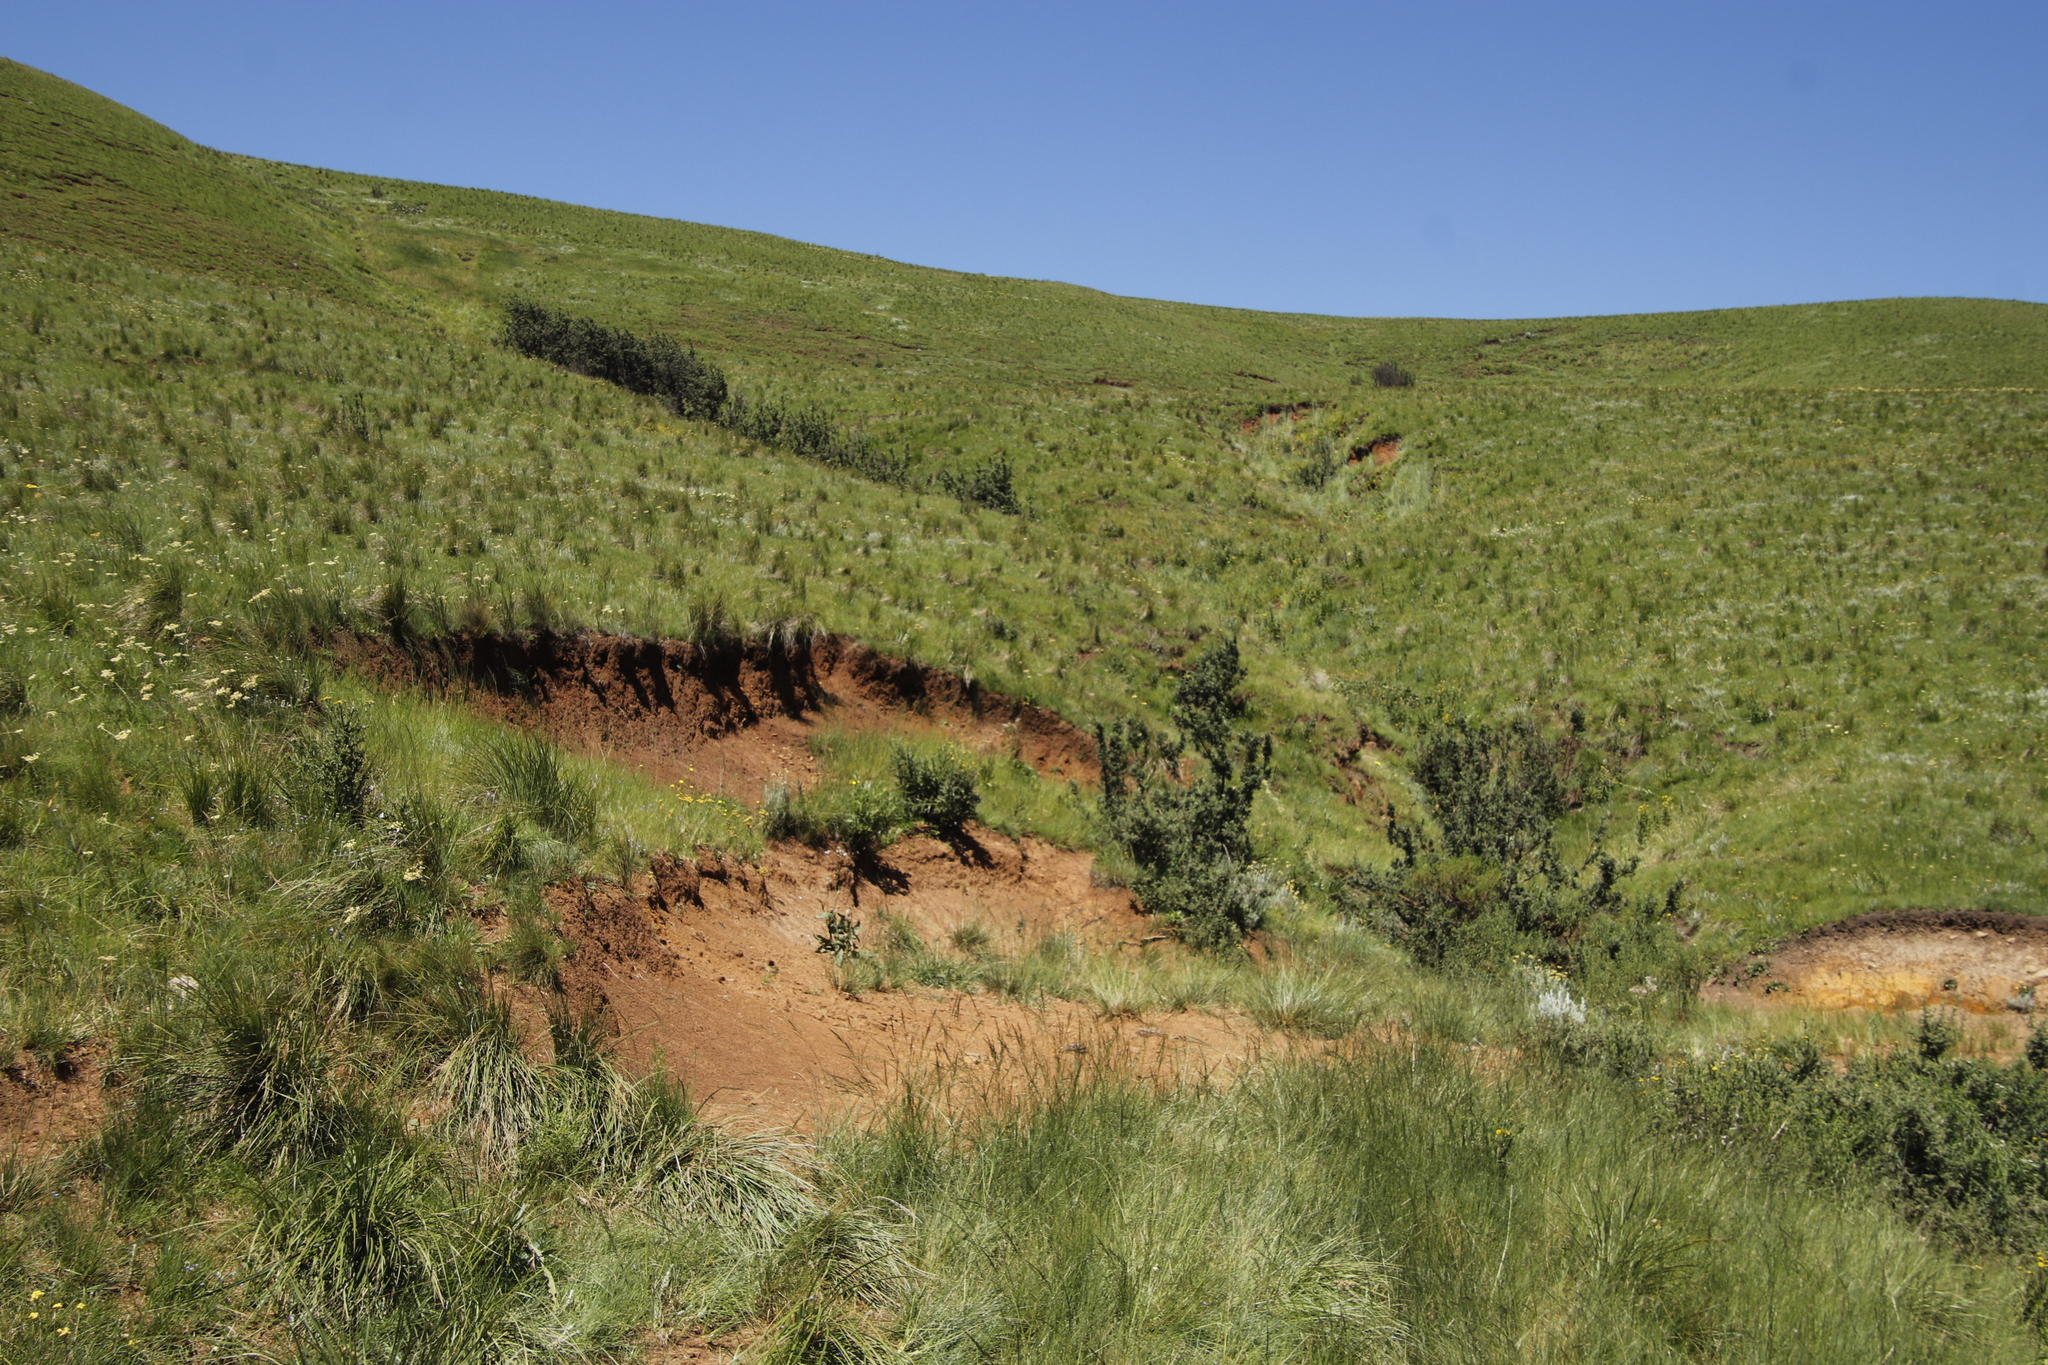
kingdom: Plantae
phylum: Tracheophyta
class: Magnoliopsida
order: Rosales
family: Rosaceae
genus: Leucosidea
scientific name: Leucosidea sericea
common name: Oldwood
